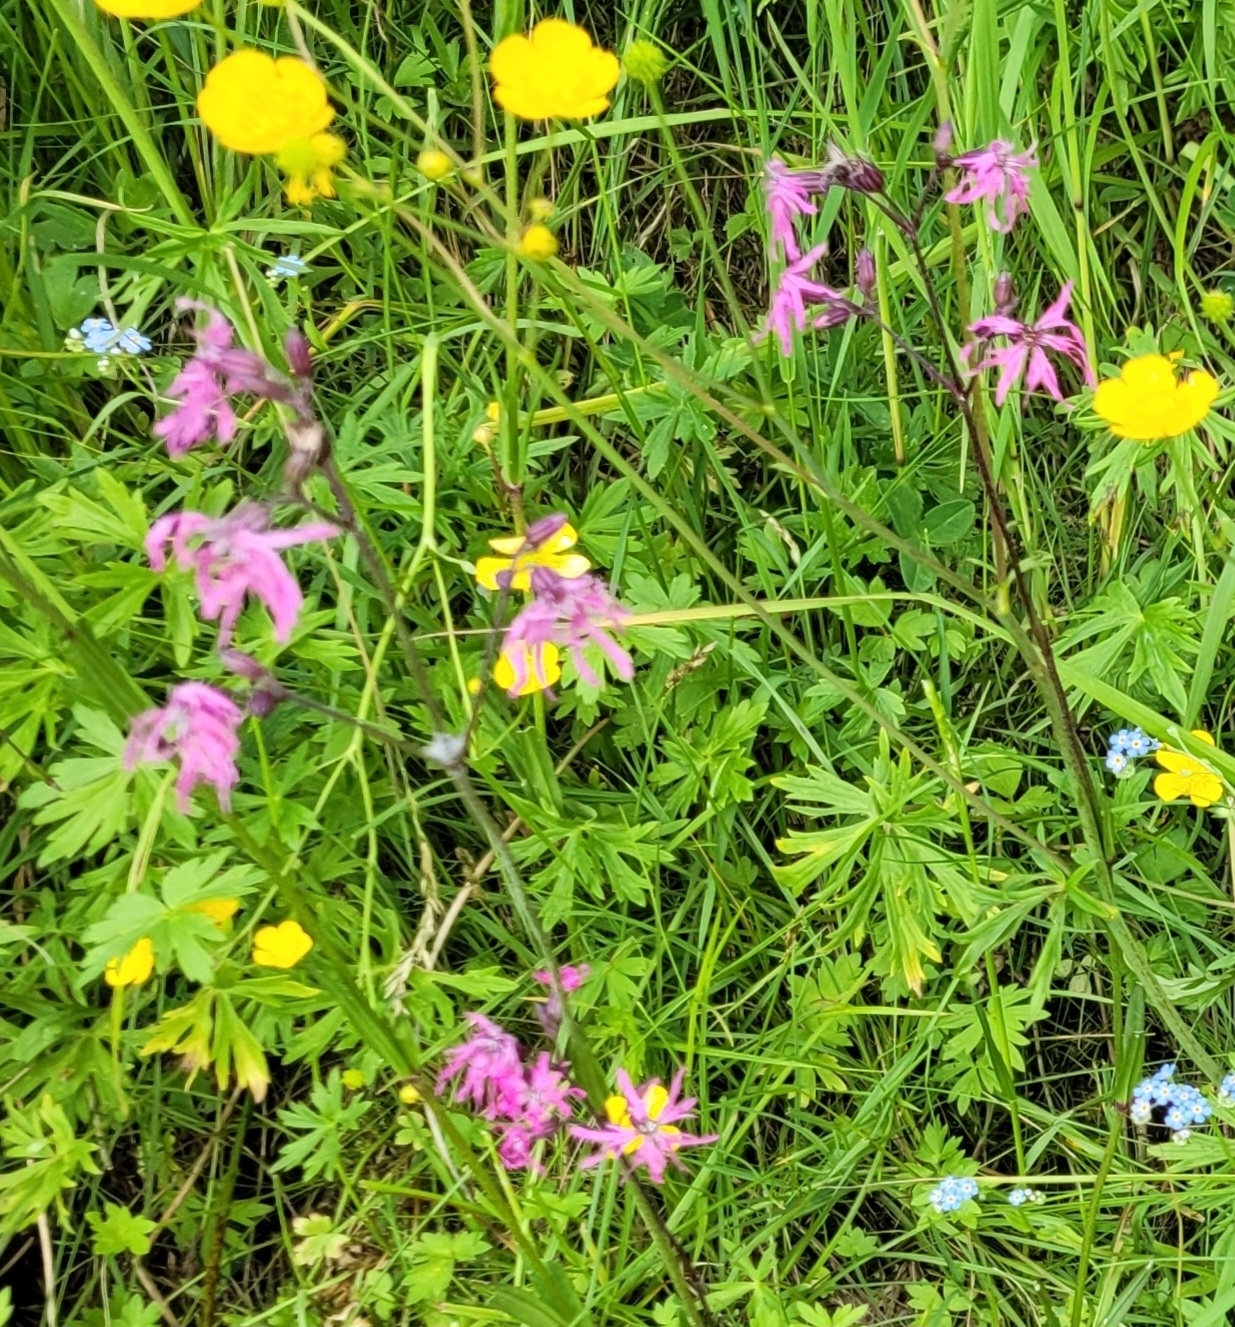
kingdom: Plantae
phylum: Tracheophyta
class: Magnoliopsida
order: Caryophyllales
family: Caryophyllaceae
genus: Silene
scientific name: Silene flos-cuculi
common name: Ragged-robin
